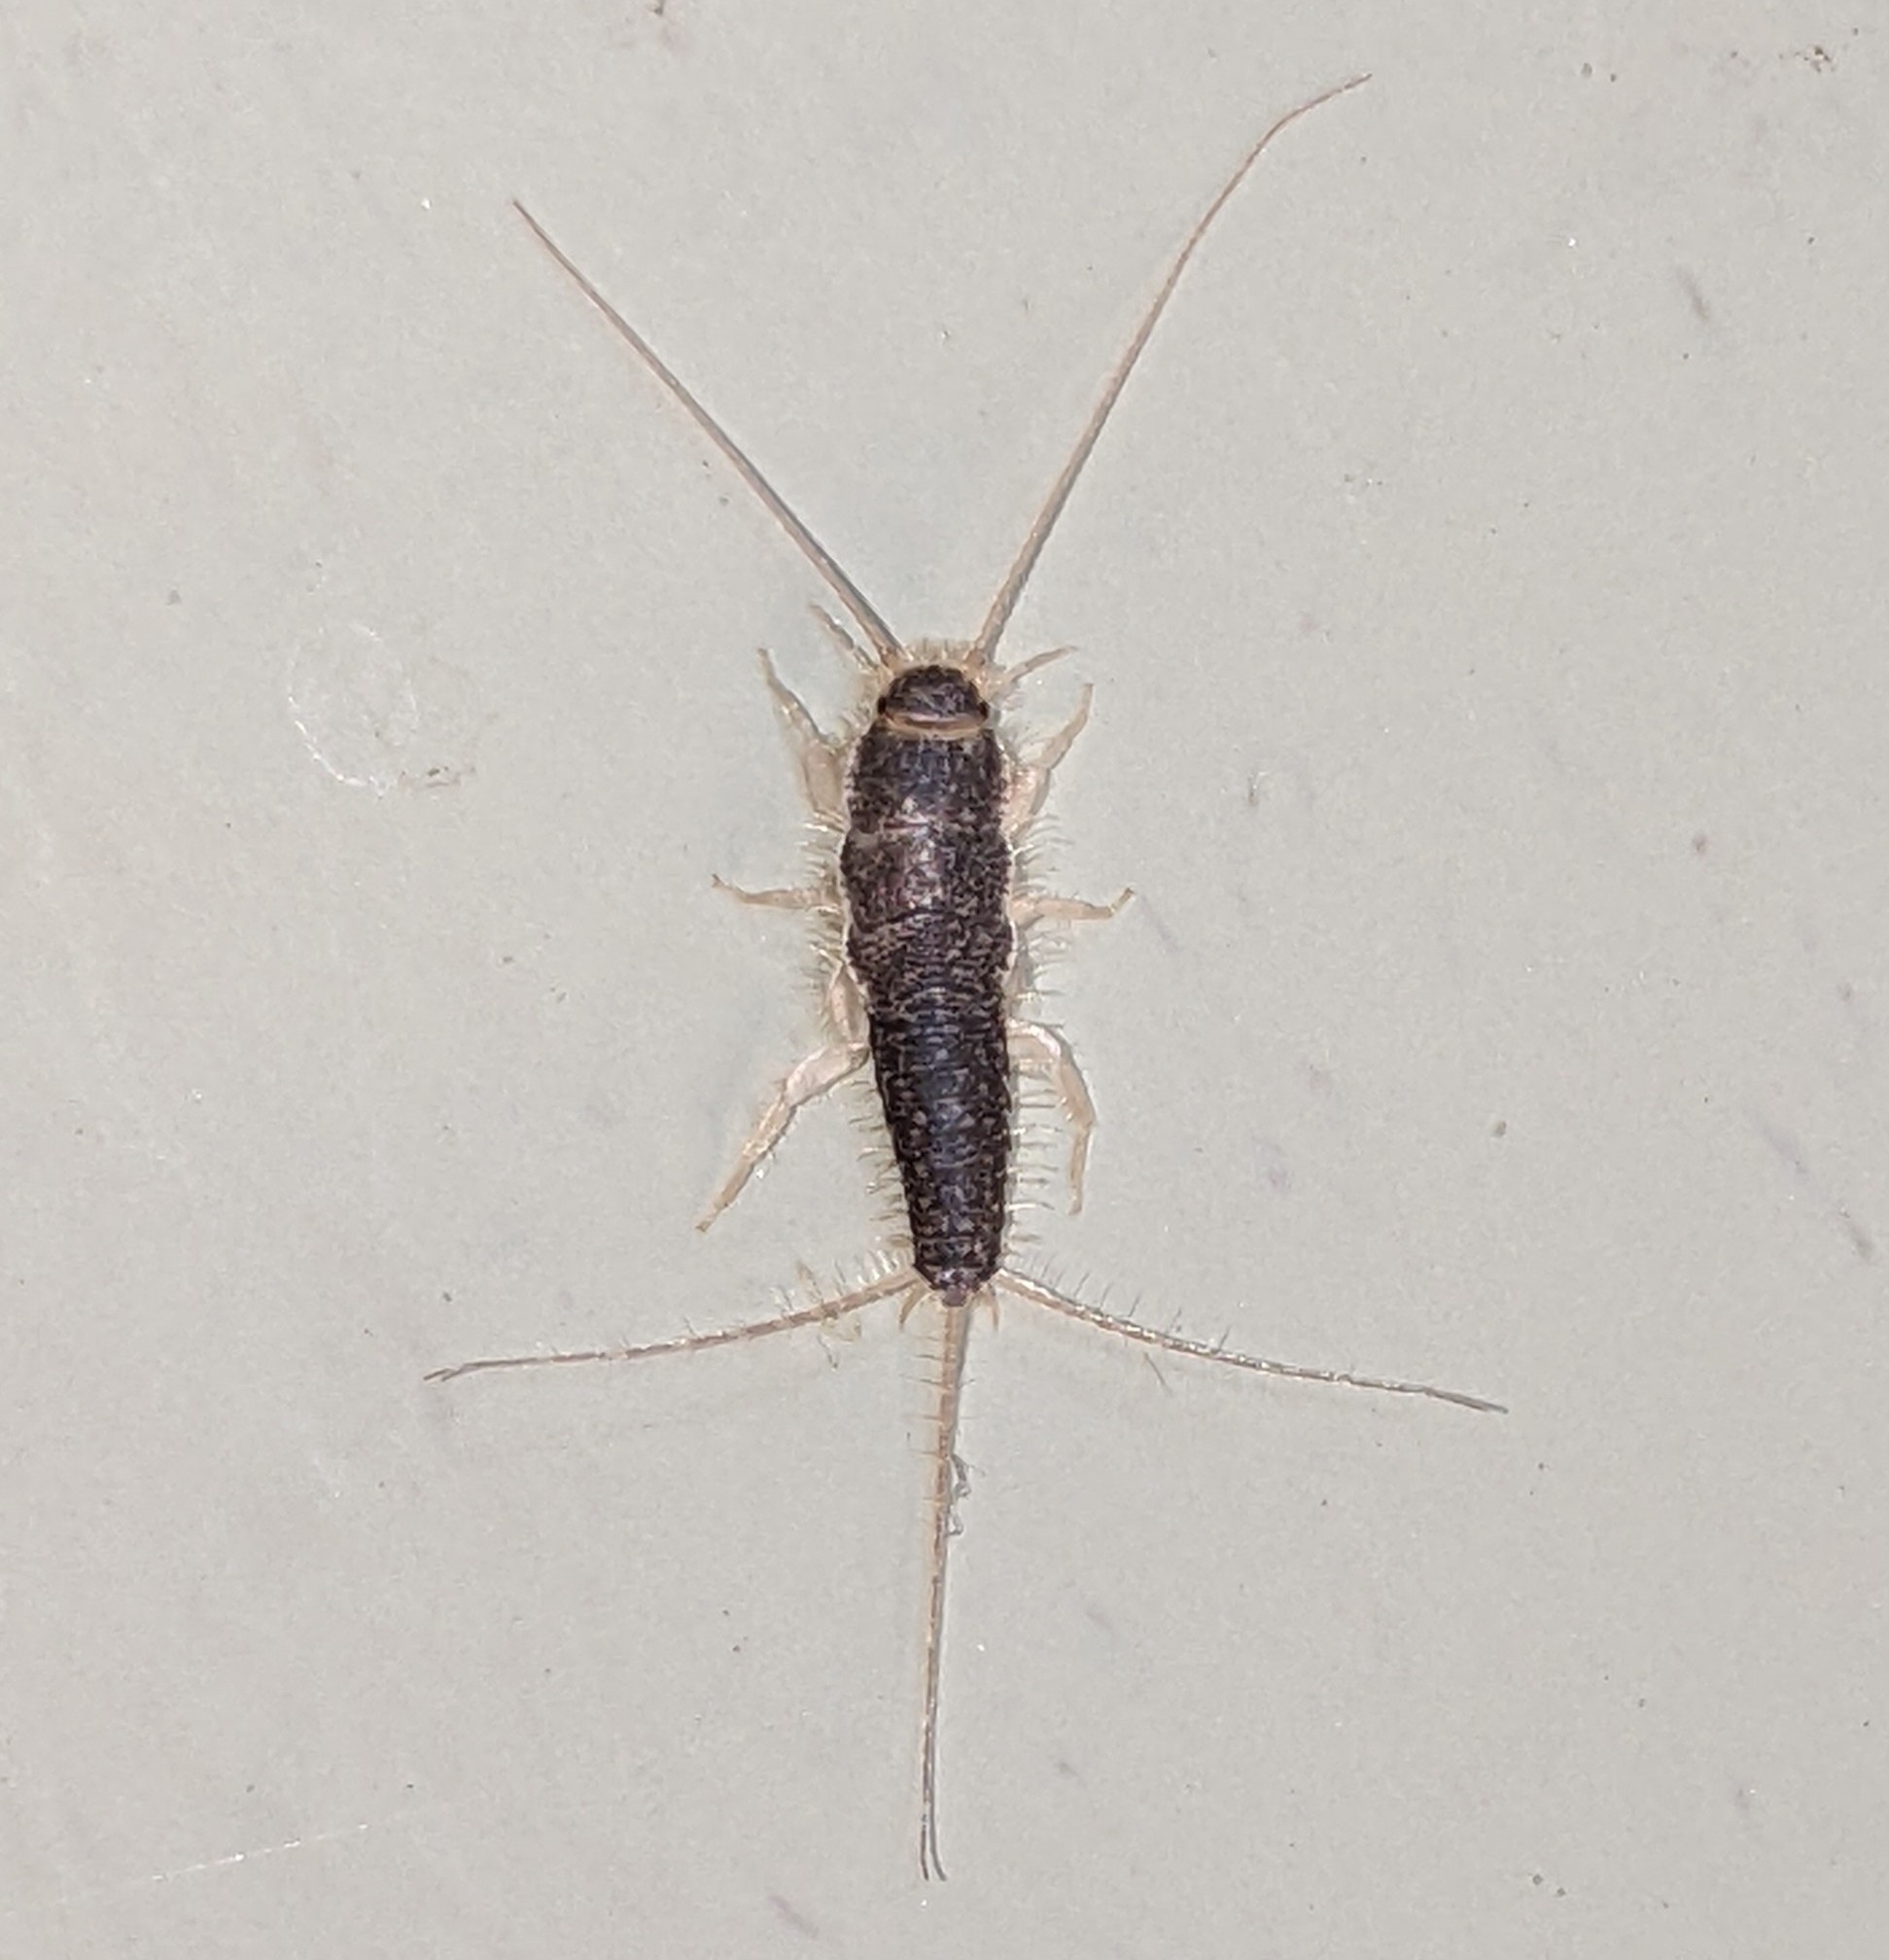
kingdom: Animalia
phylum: Arthropoda
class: Insecta
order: Zygentoma
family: Lepismatidae
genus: Ctenolepisma
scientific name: Ctenolepisma longicaudatum
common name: Silverfish
